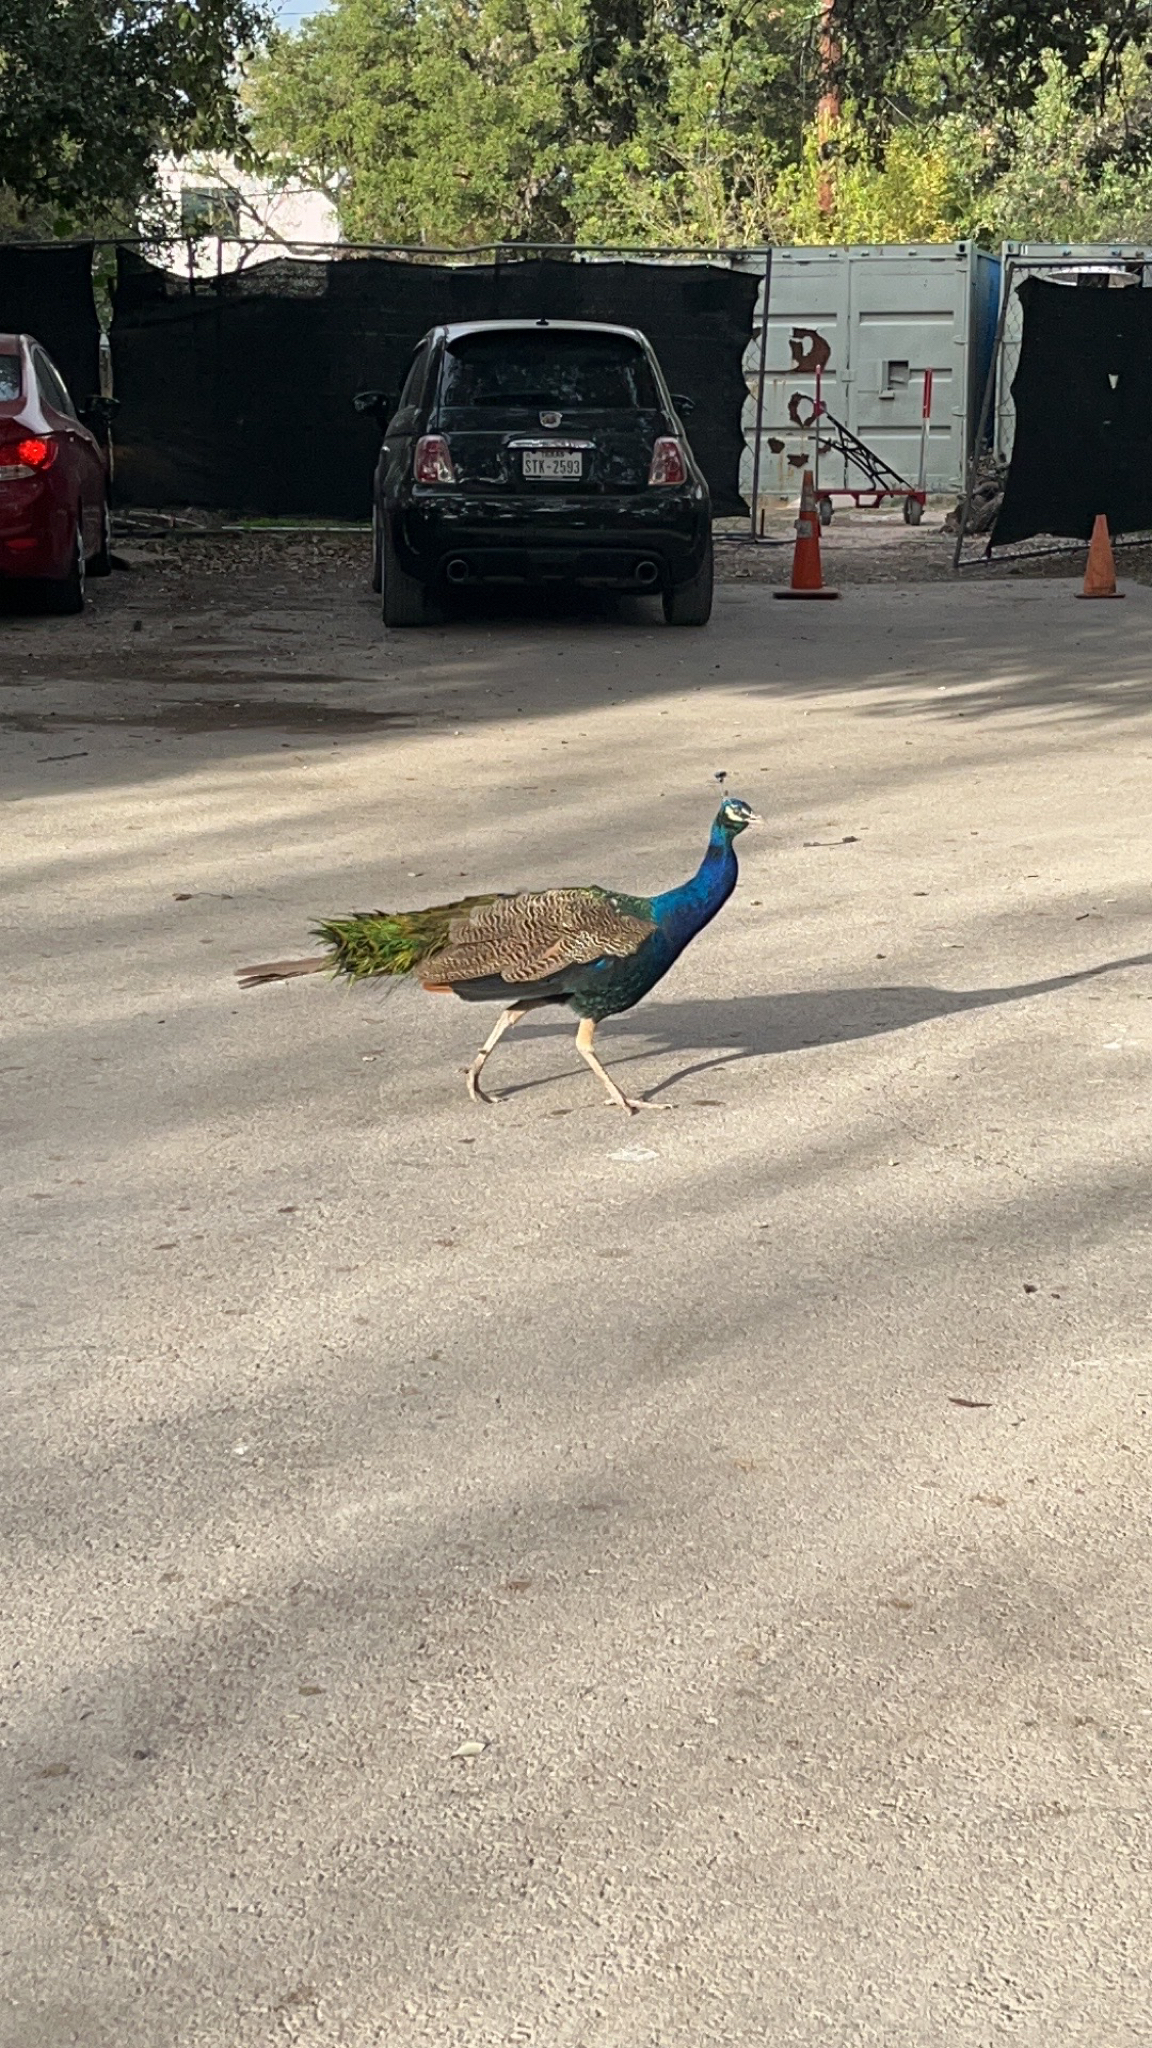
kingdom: Animalia
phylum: Chordata
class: Aves
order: Galliformes
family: Phasianidae
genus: Pavo
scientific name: Pavo cristatus
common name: Indian peafowl
